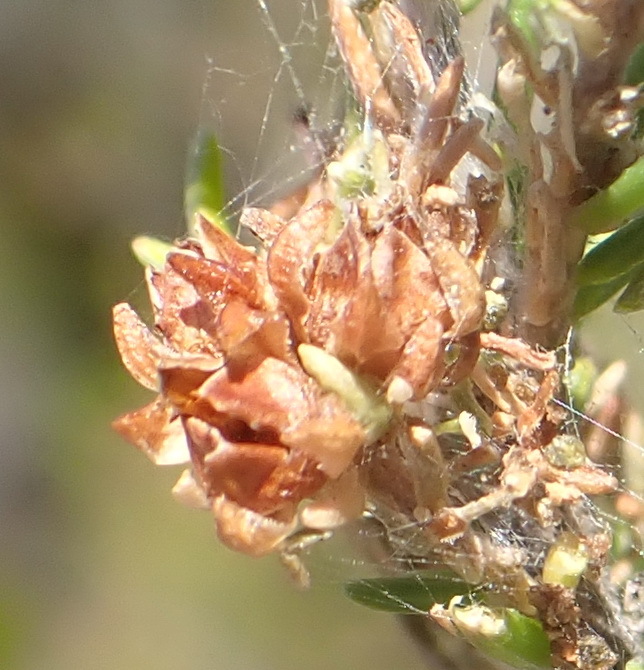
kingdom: Plantae
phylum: Tracheophyta
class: Magnoliopsida
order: Ericales
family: Ericaceae
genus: Erica
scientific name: Erica glumiflora
